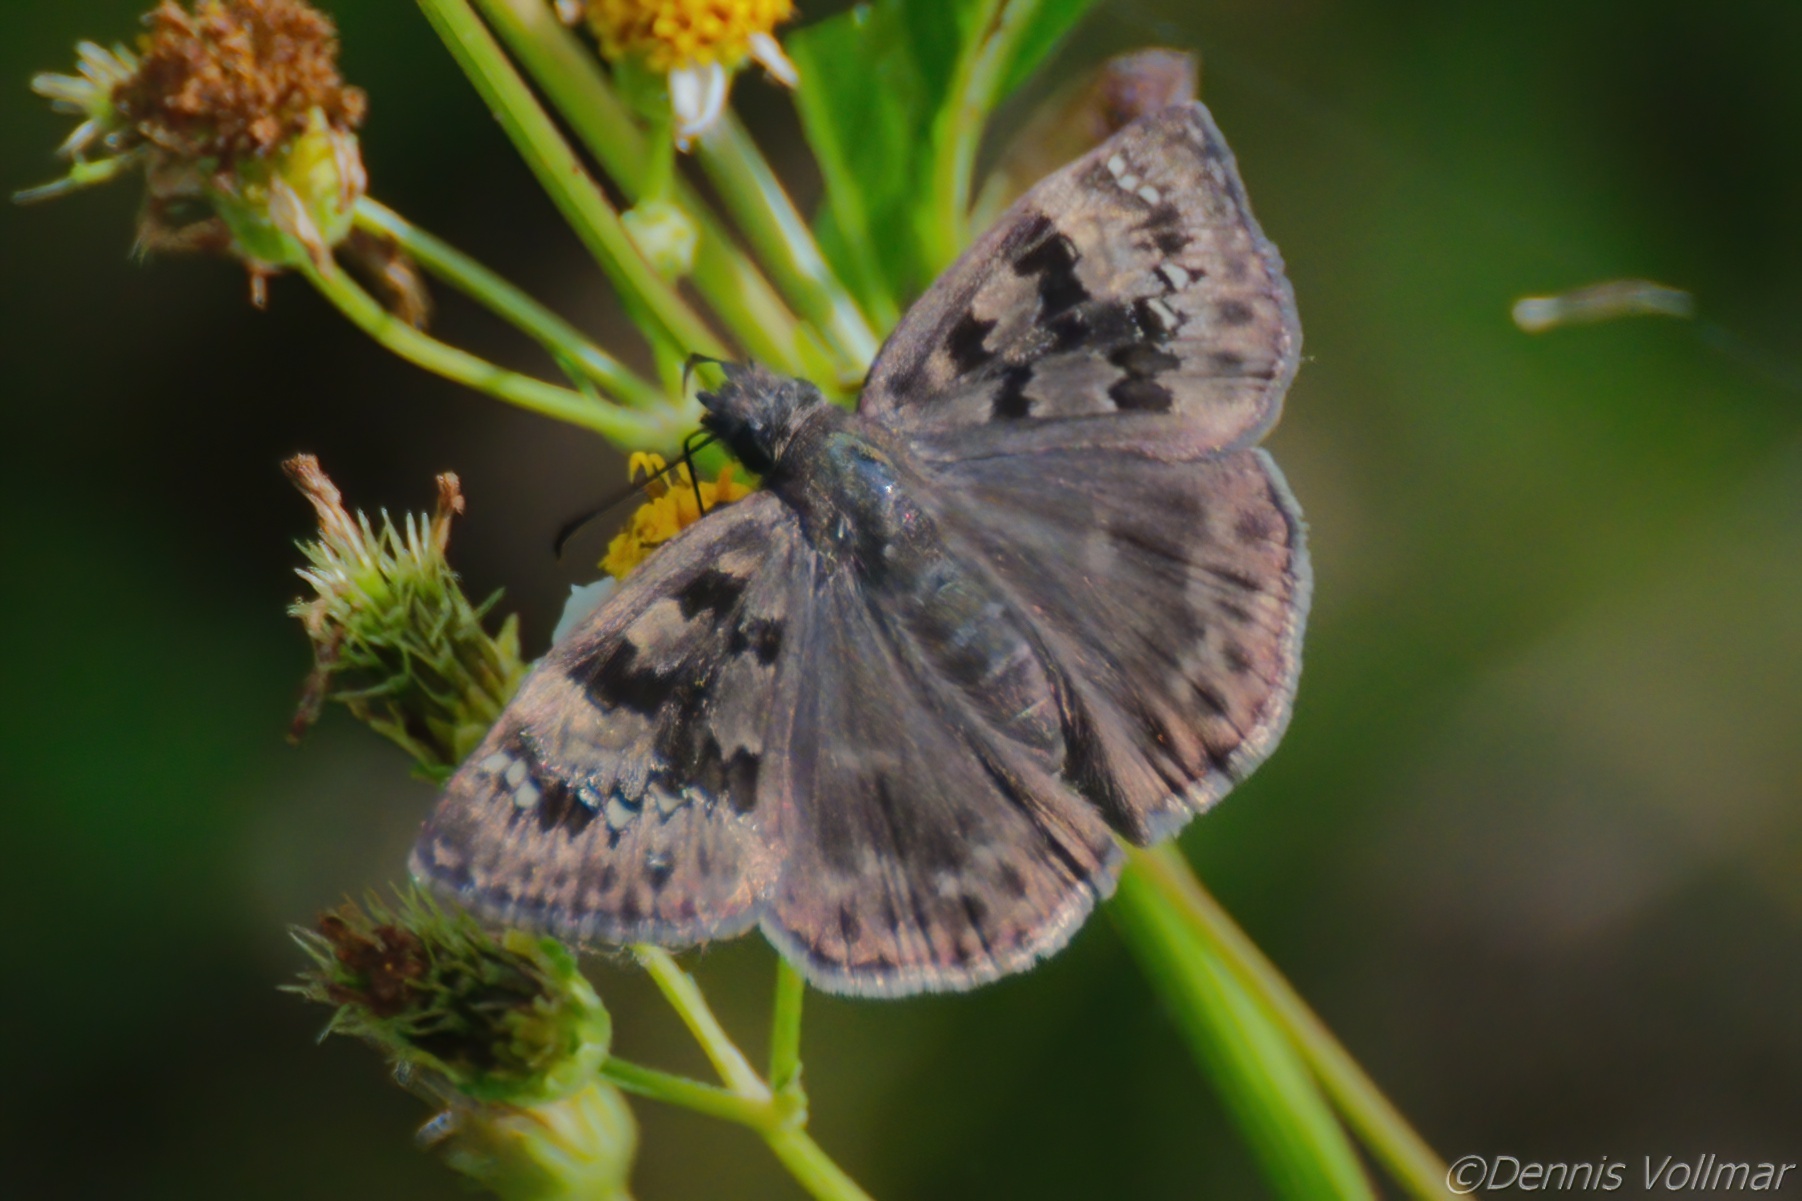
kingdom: Animalia
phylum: Arthropoda
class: Insecta
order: Lepidoptera
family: Hesperiidae
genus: Erynnis
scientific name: Erynnis horatius
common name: Horace's duskywing
